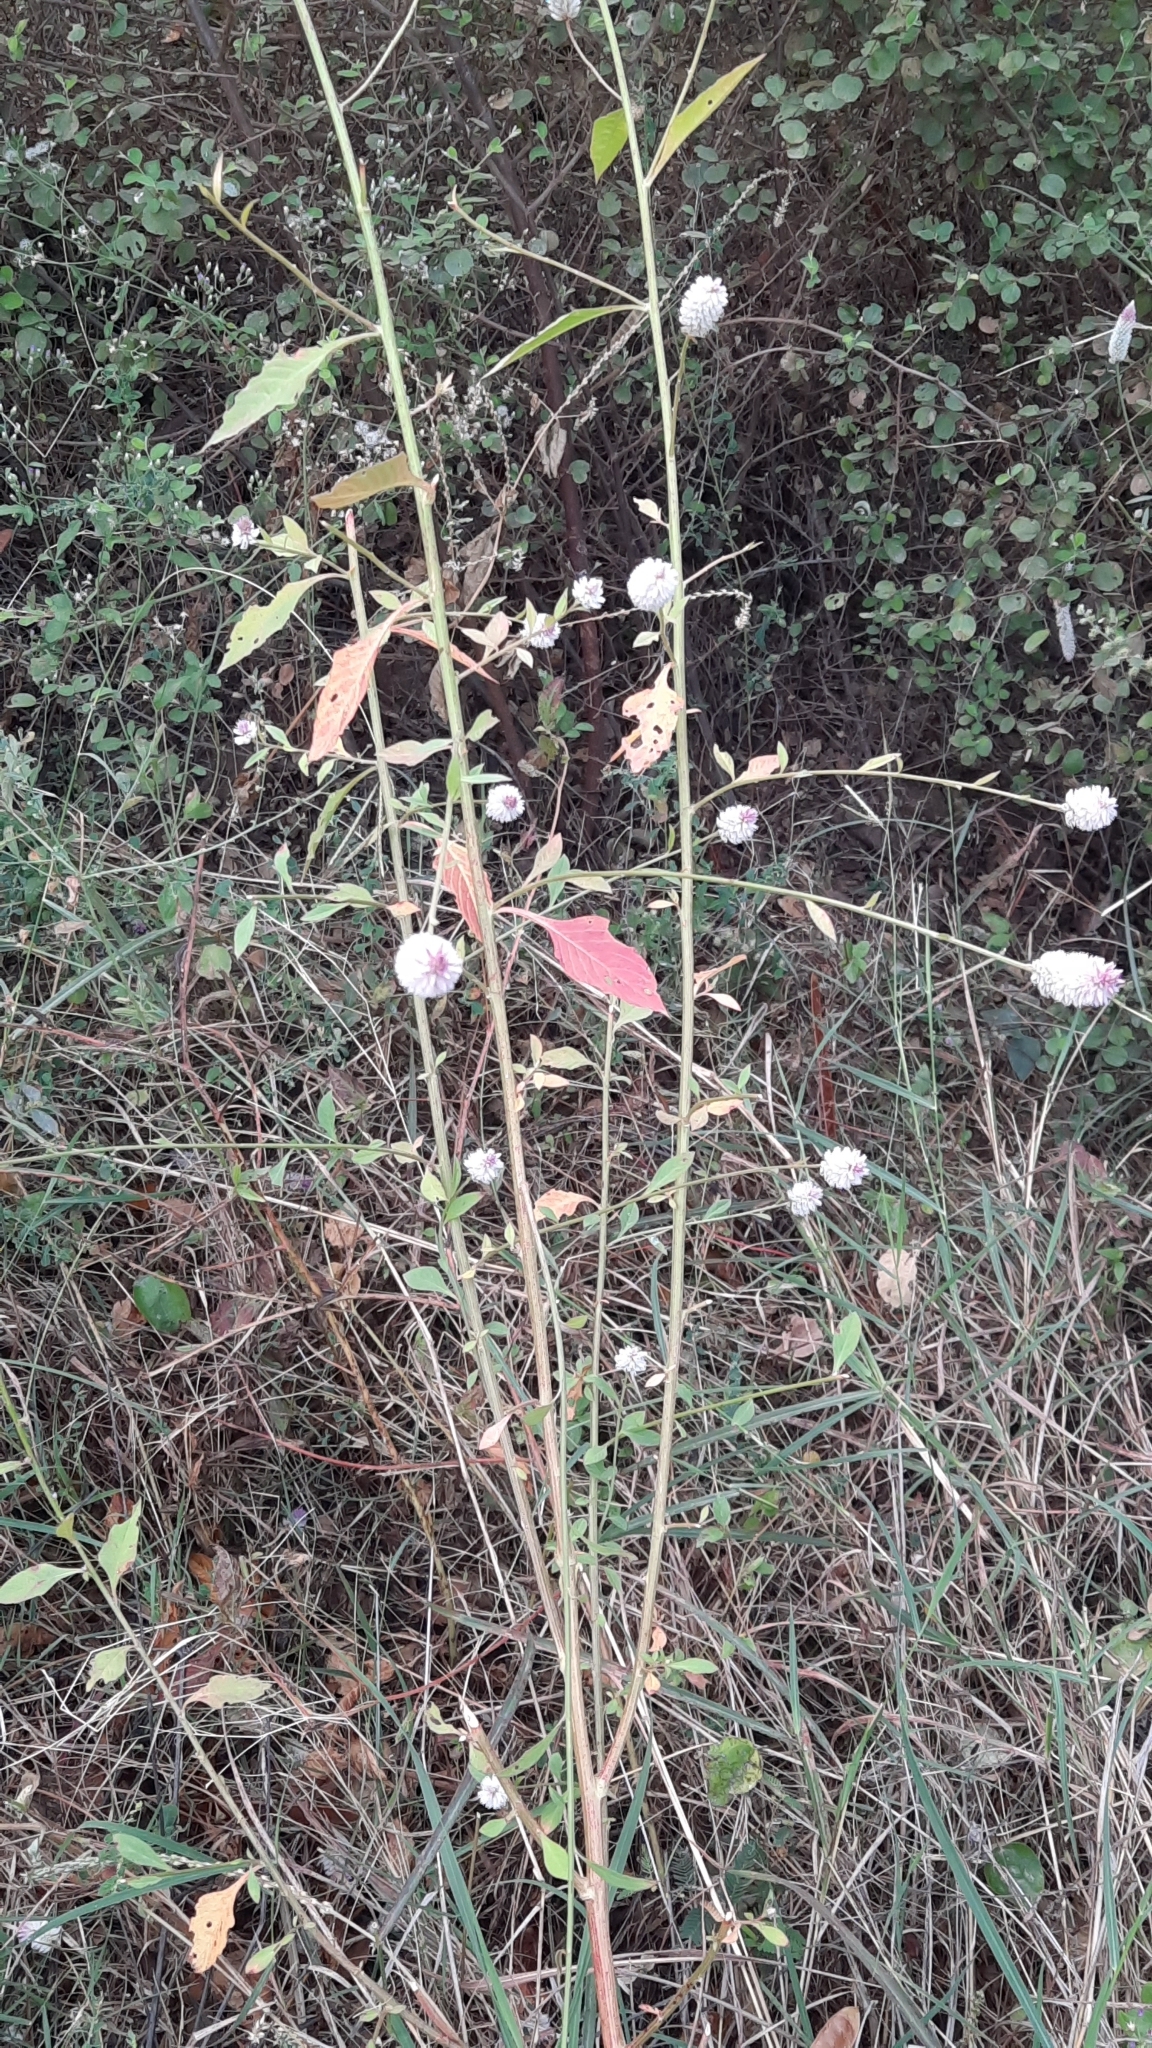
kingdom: Plantae
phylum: Tracheophyta
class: Magnoliopsida
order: Caryophyllales
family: Amaranthaceae
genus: Celosia
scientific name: Celosia argentea
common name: Feather cockscomb
